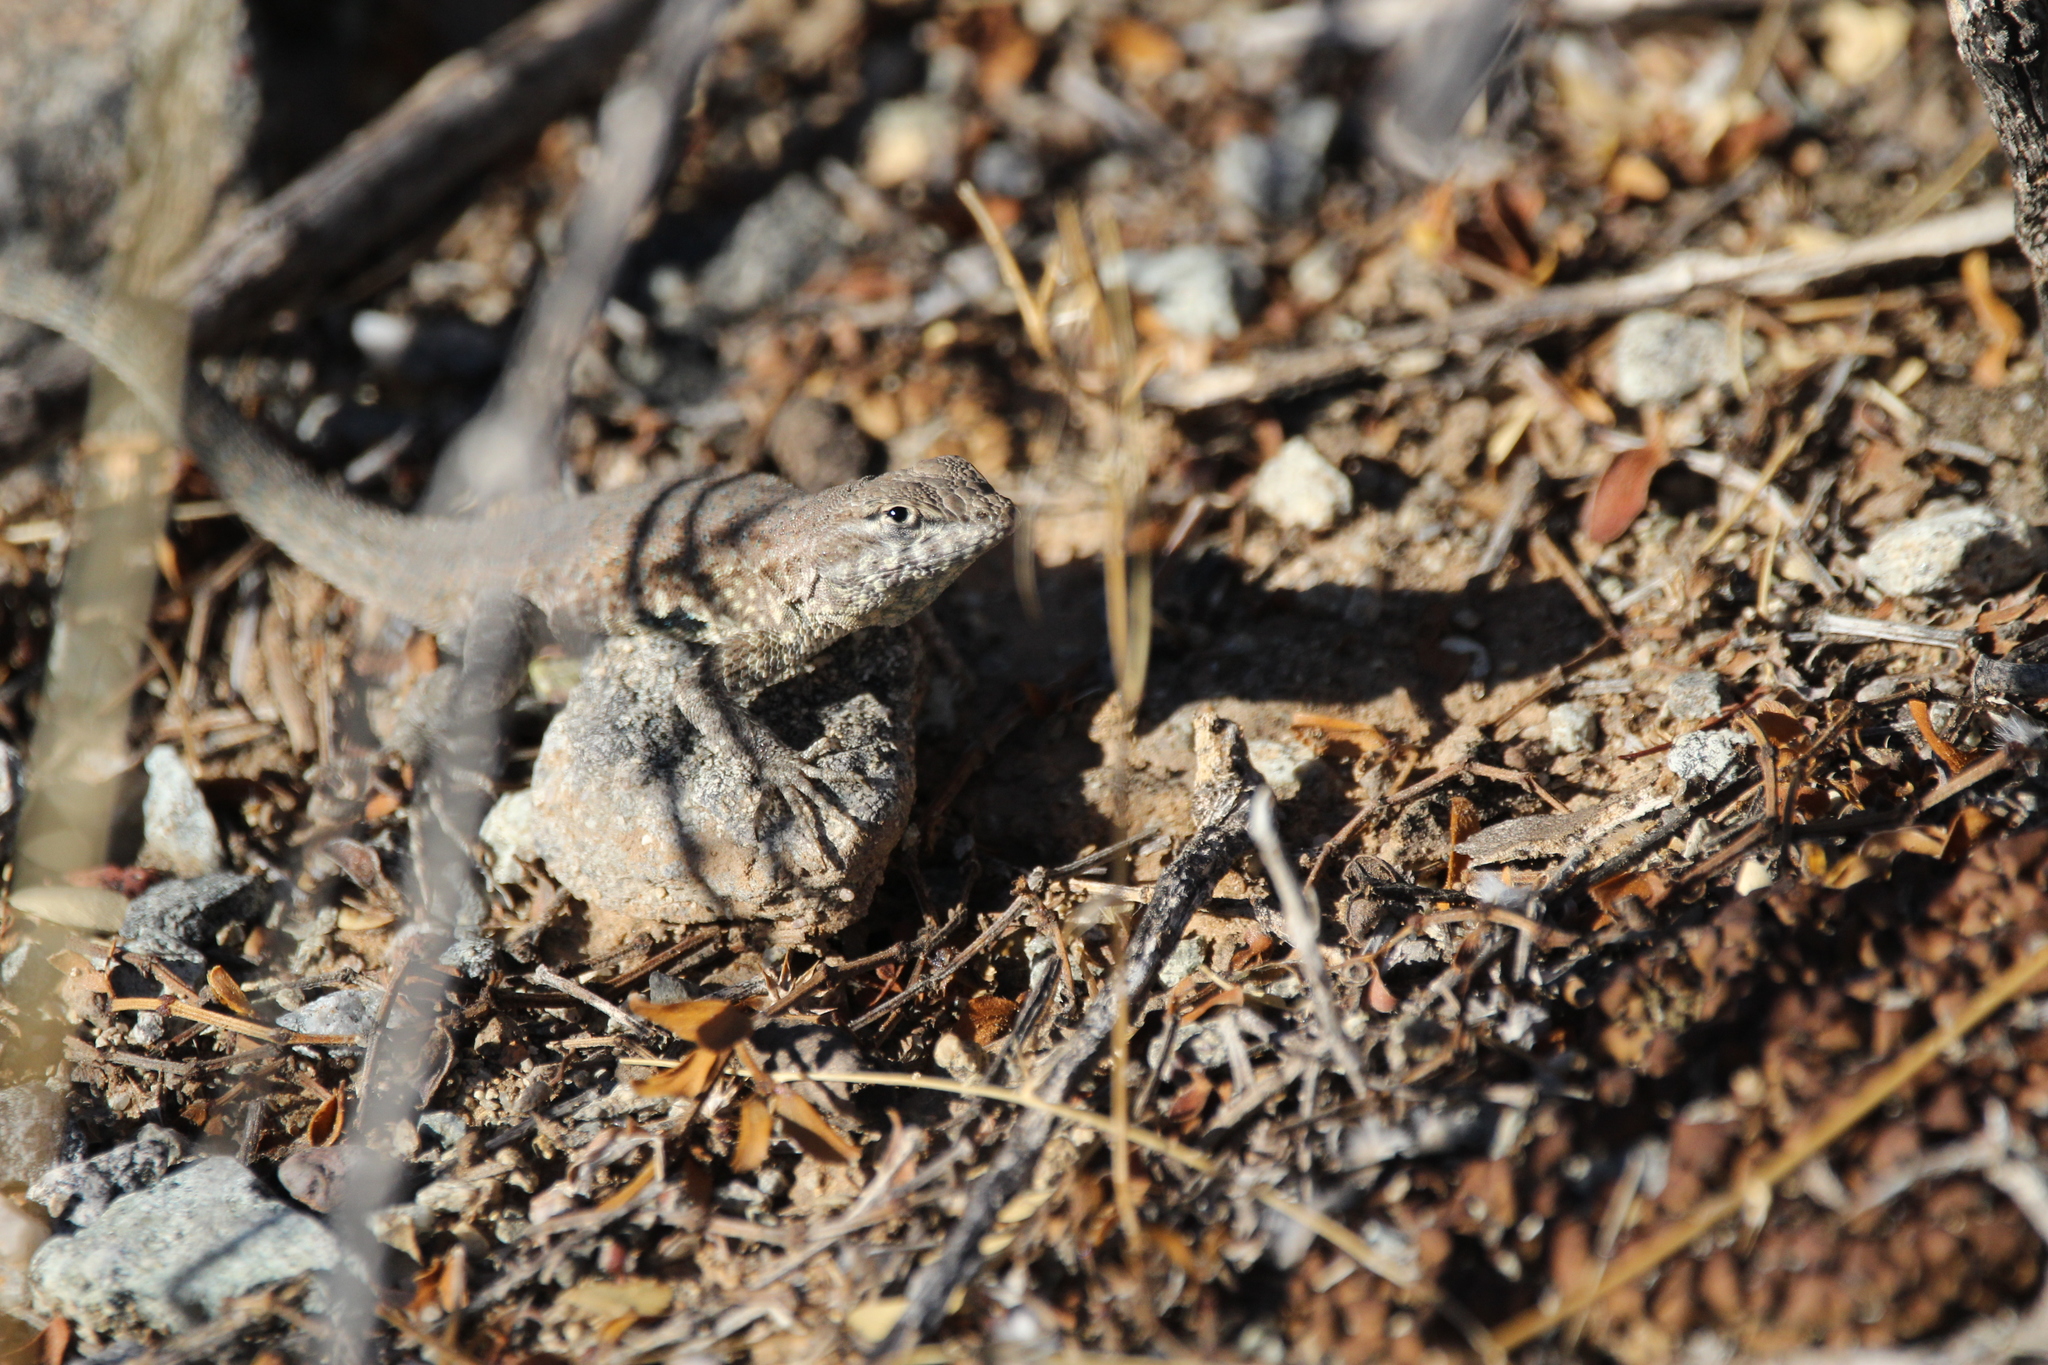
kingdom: Animalia
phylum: Chordata
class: Squamata
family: Phrynosomatidae
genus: Uta
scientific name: Uta stansburiana
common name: Side-blotched lizard
